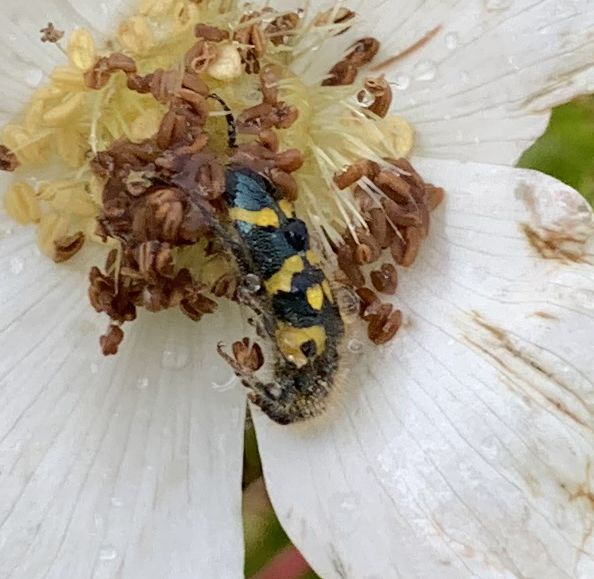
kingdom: Animalia
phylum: Arthropoda
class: Insecta
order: Coleoptera
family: Cleridae
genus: Trichodes
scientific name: Trichodes ornatus
